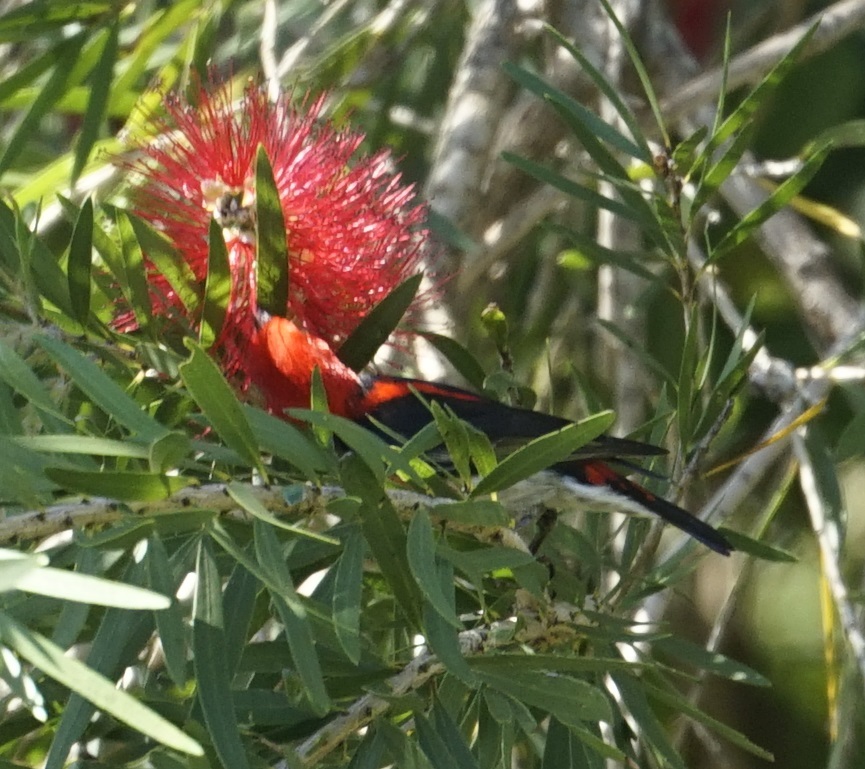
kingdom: Animalia
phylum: Chordata
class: Aves
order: Passeriformes
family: Meliphagidae
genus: Myzomela
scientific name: Myzomela sanguinolenta
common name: Scarlet myzomela
